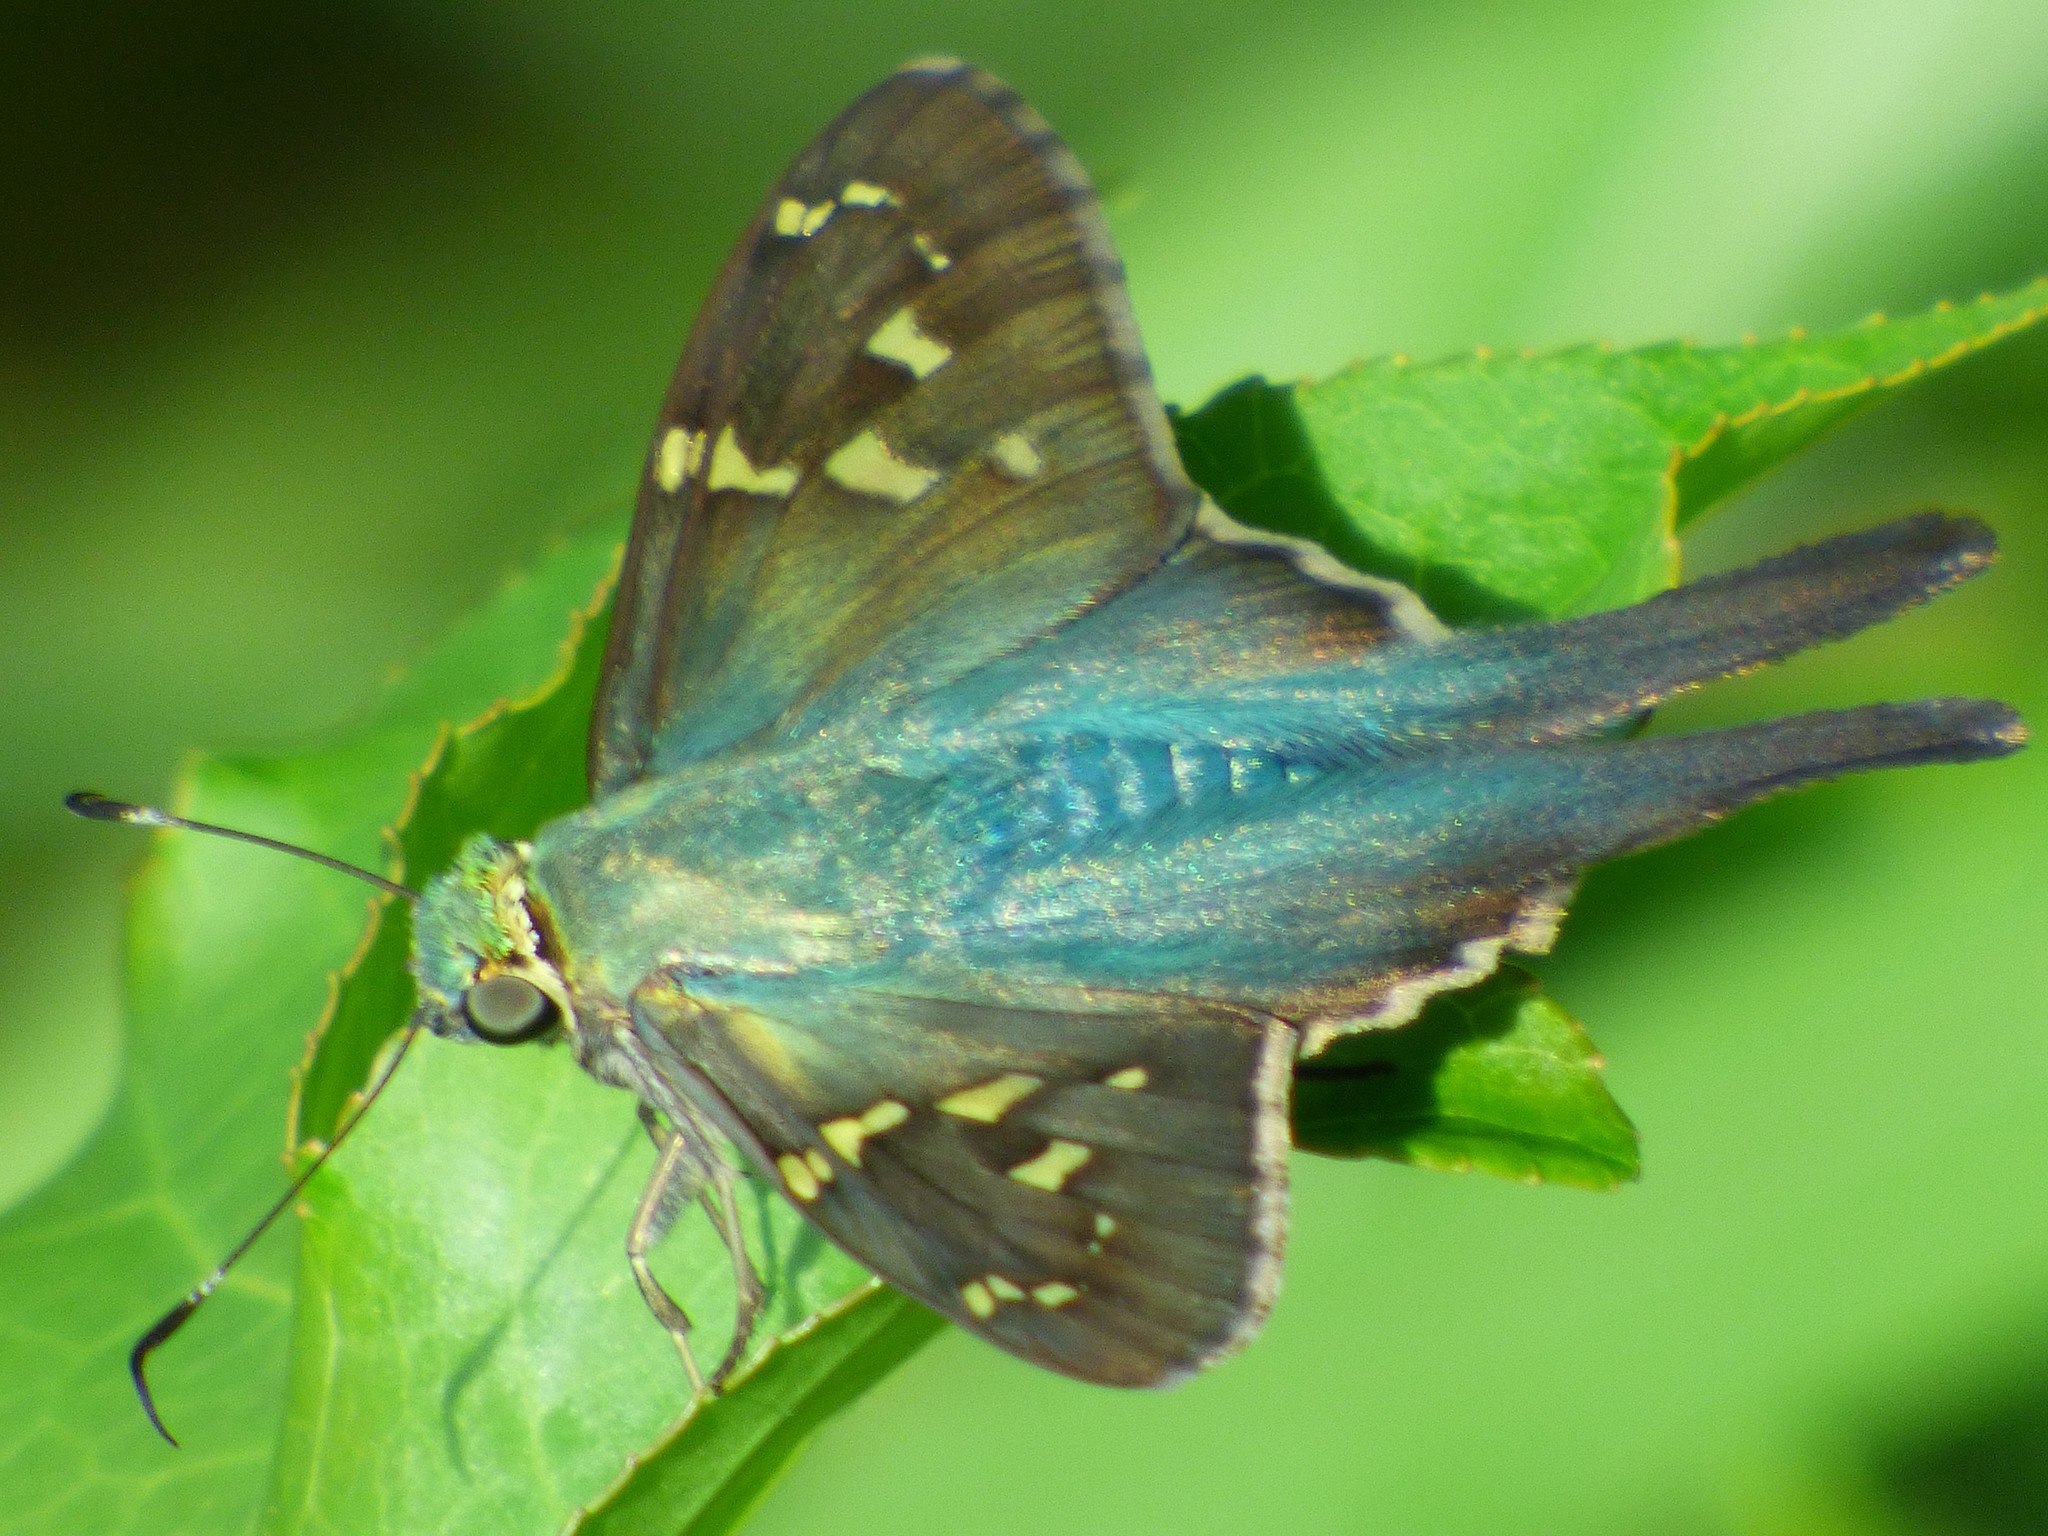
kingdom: Animalia
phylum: Arthropoda
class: Insecta
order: Lepidoptera
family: Hesperiidae
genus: Urbanus
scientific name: Urbanus proteus
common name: Long-tailed skipper
